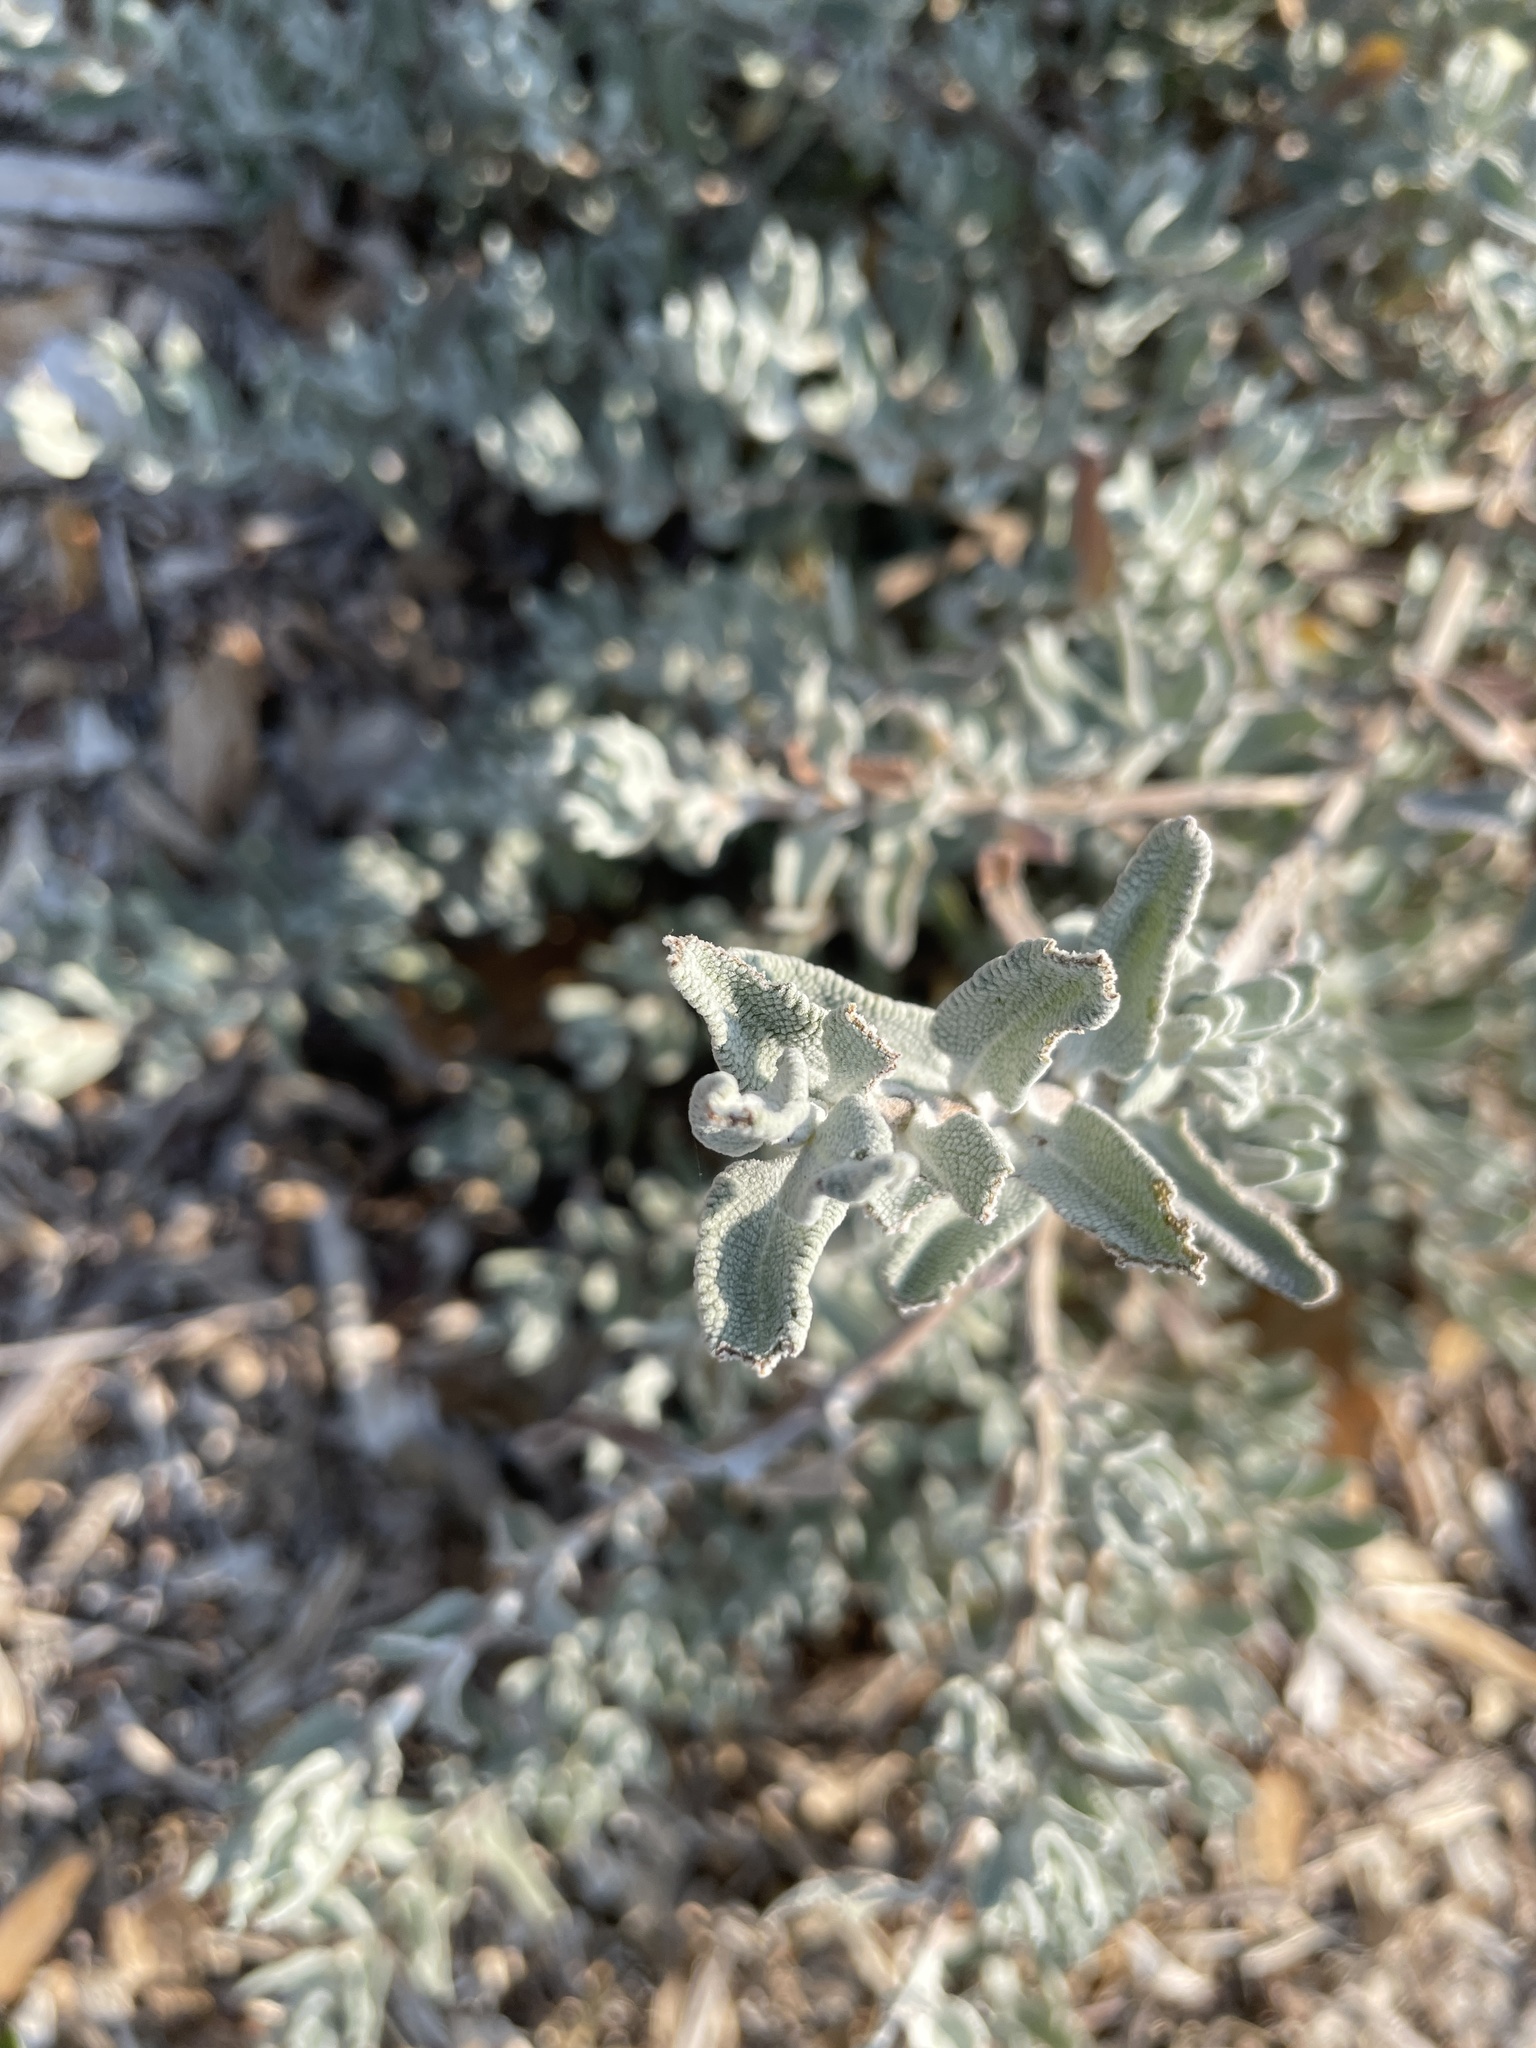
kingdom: Plantae
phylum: Tracheophyta
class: Magnoliopsida
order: Lamiales
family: Lamiaceae
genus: Salvia
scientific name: Salvia leucophylla
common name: Purple sage
